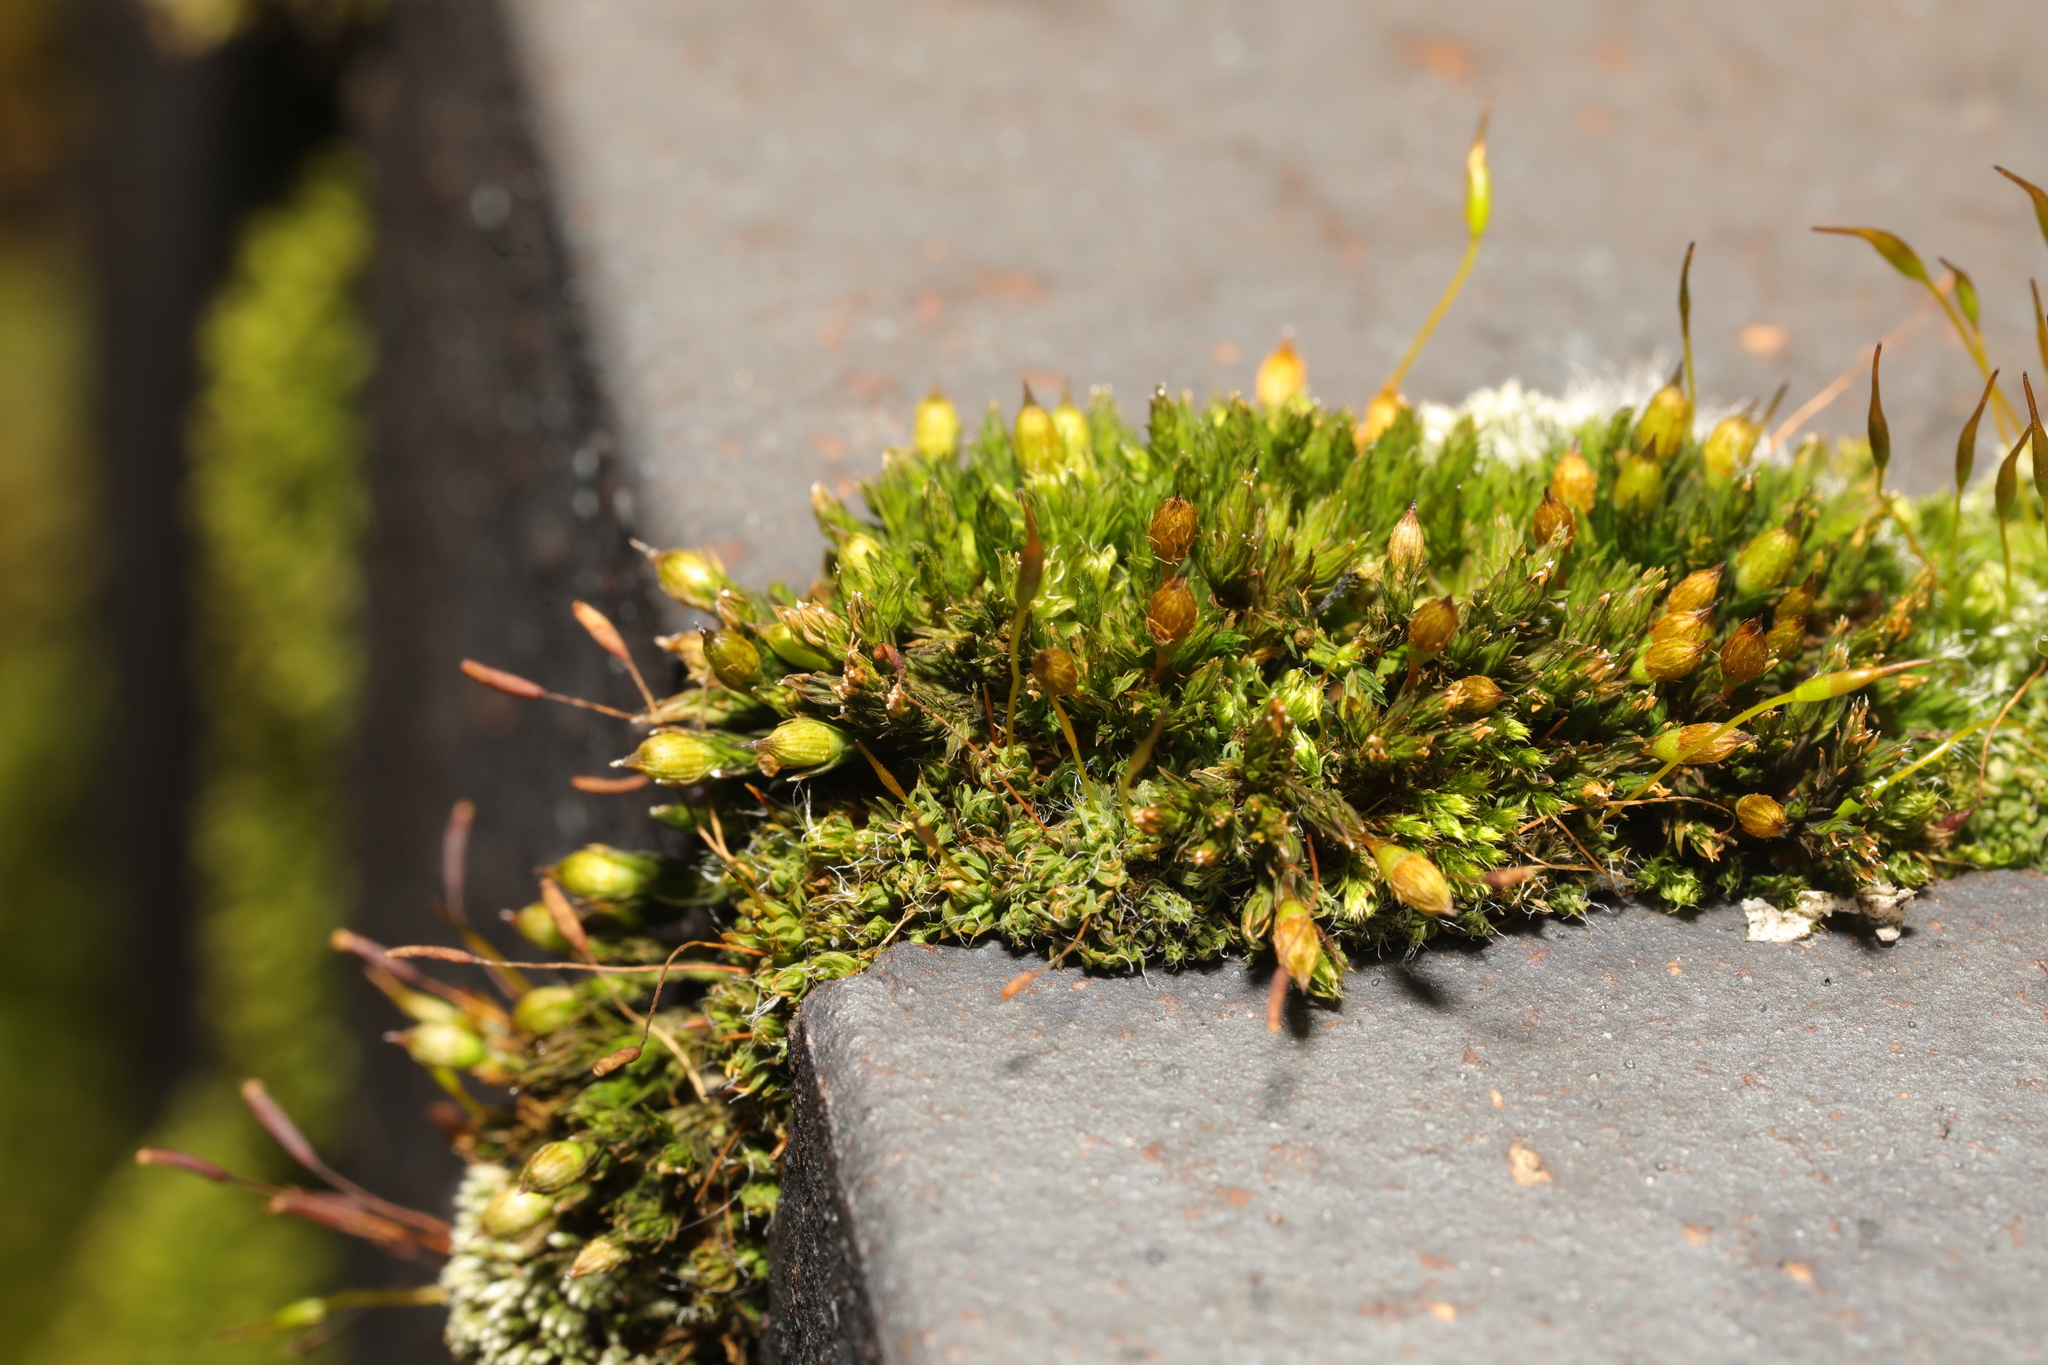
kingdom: Plantae
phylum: Bryophyta
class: Bryopsida
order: Orthotrichales
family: Orthotrichaceae
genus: Orthotrichum
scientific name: Orthotrichum anomalum
